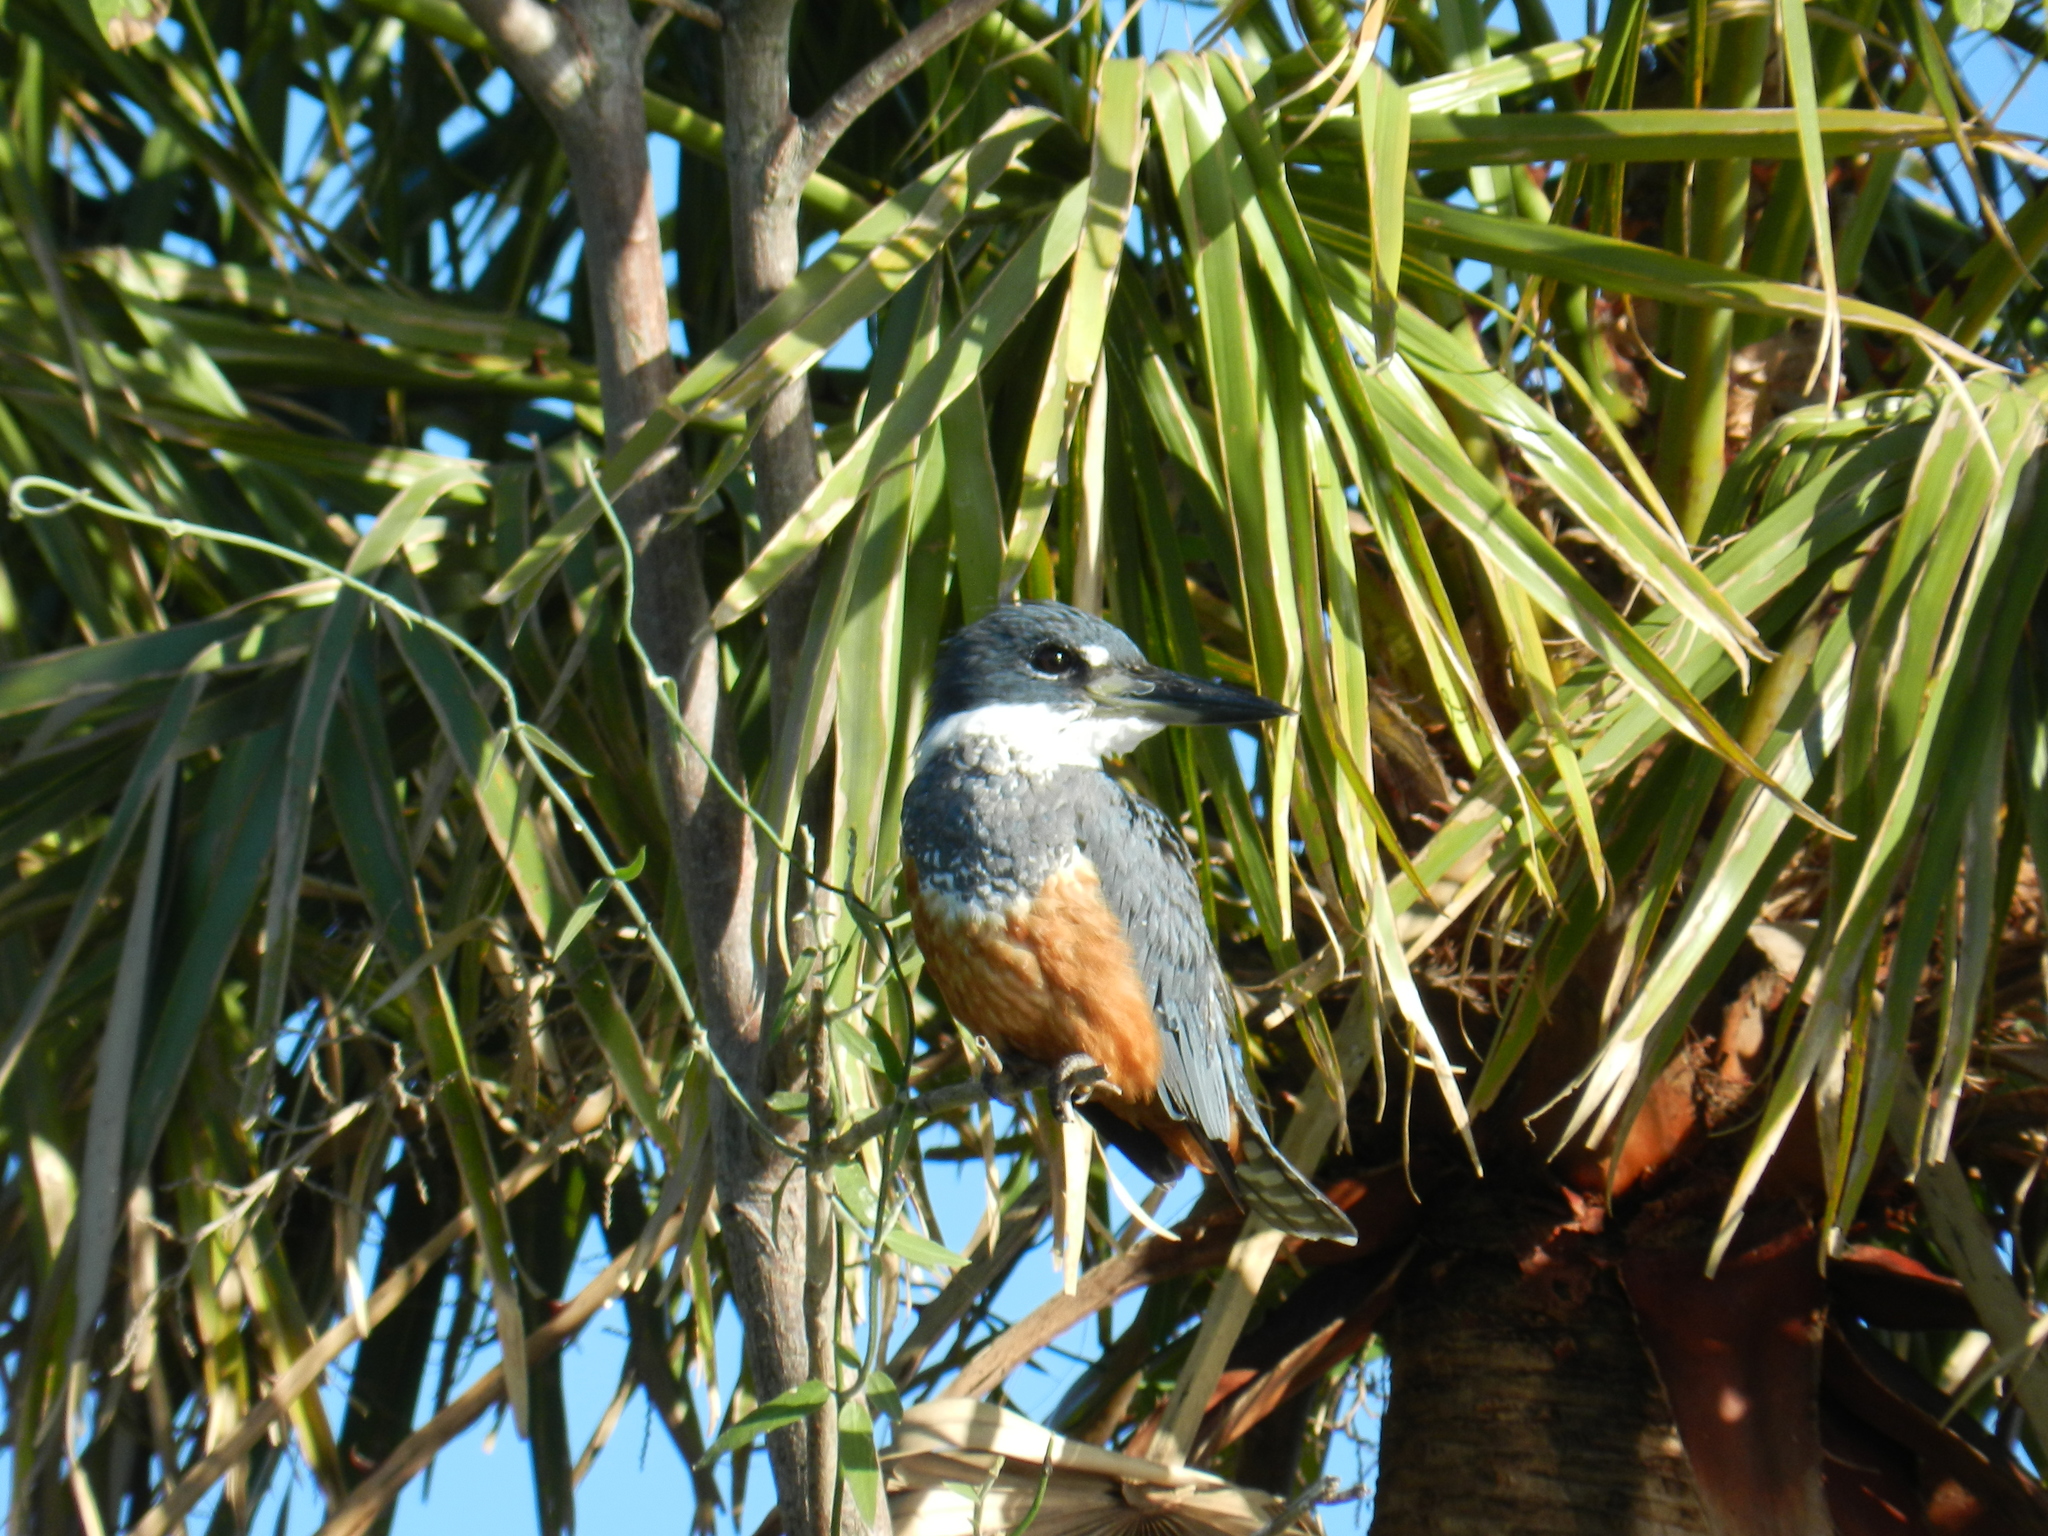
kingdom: Animalia
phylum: Chordata
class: Aves
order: Coraciiformes
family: Alcedinidae
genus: Megaceryle
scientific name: Megaceryle torquata
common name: Ringed kingfisher
